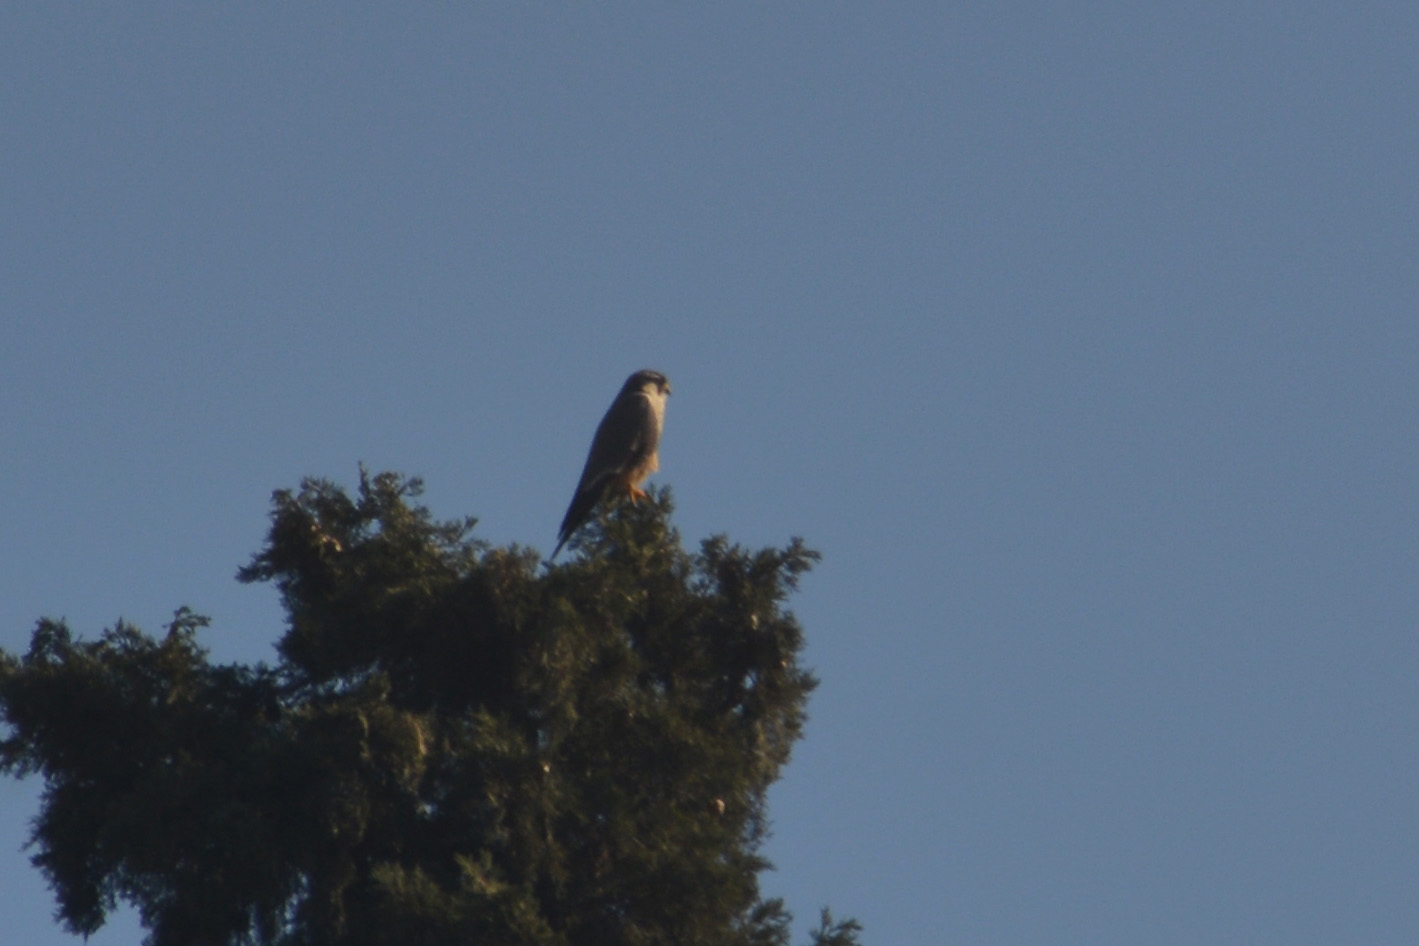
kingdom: Animalia
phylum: Chordata
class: Aves
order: Falconiformes
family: Falconidae
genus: Falco
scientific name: Falco femoralis
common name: Aplomado falcon
